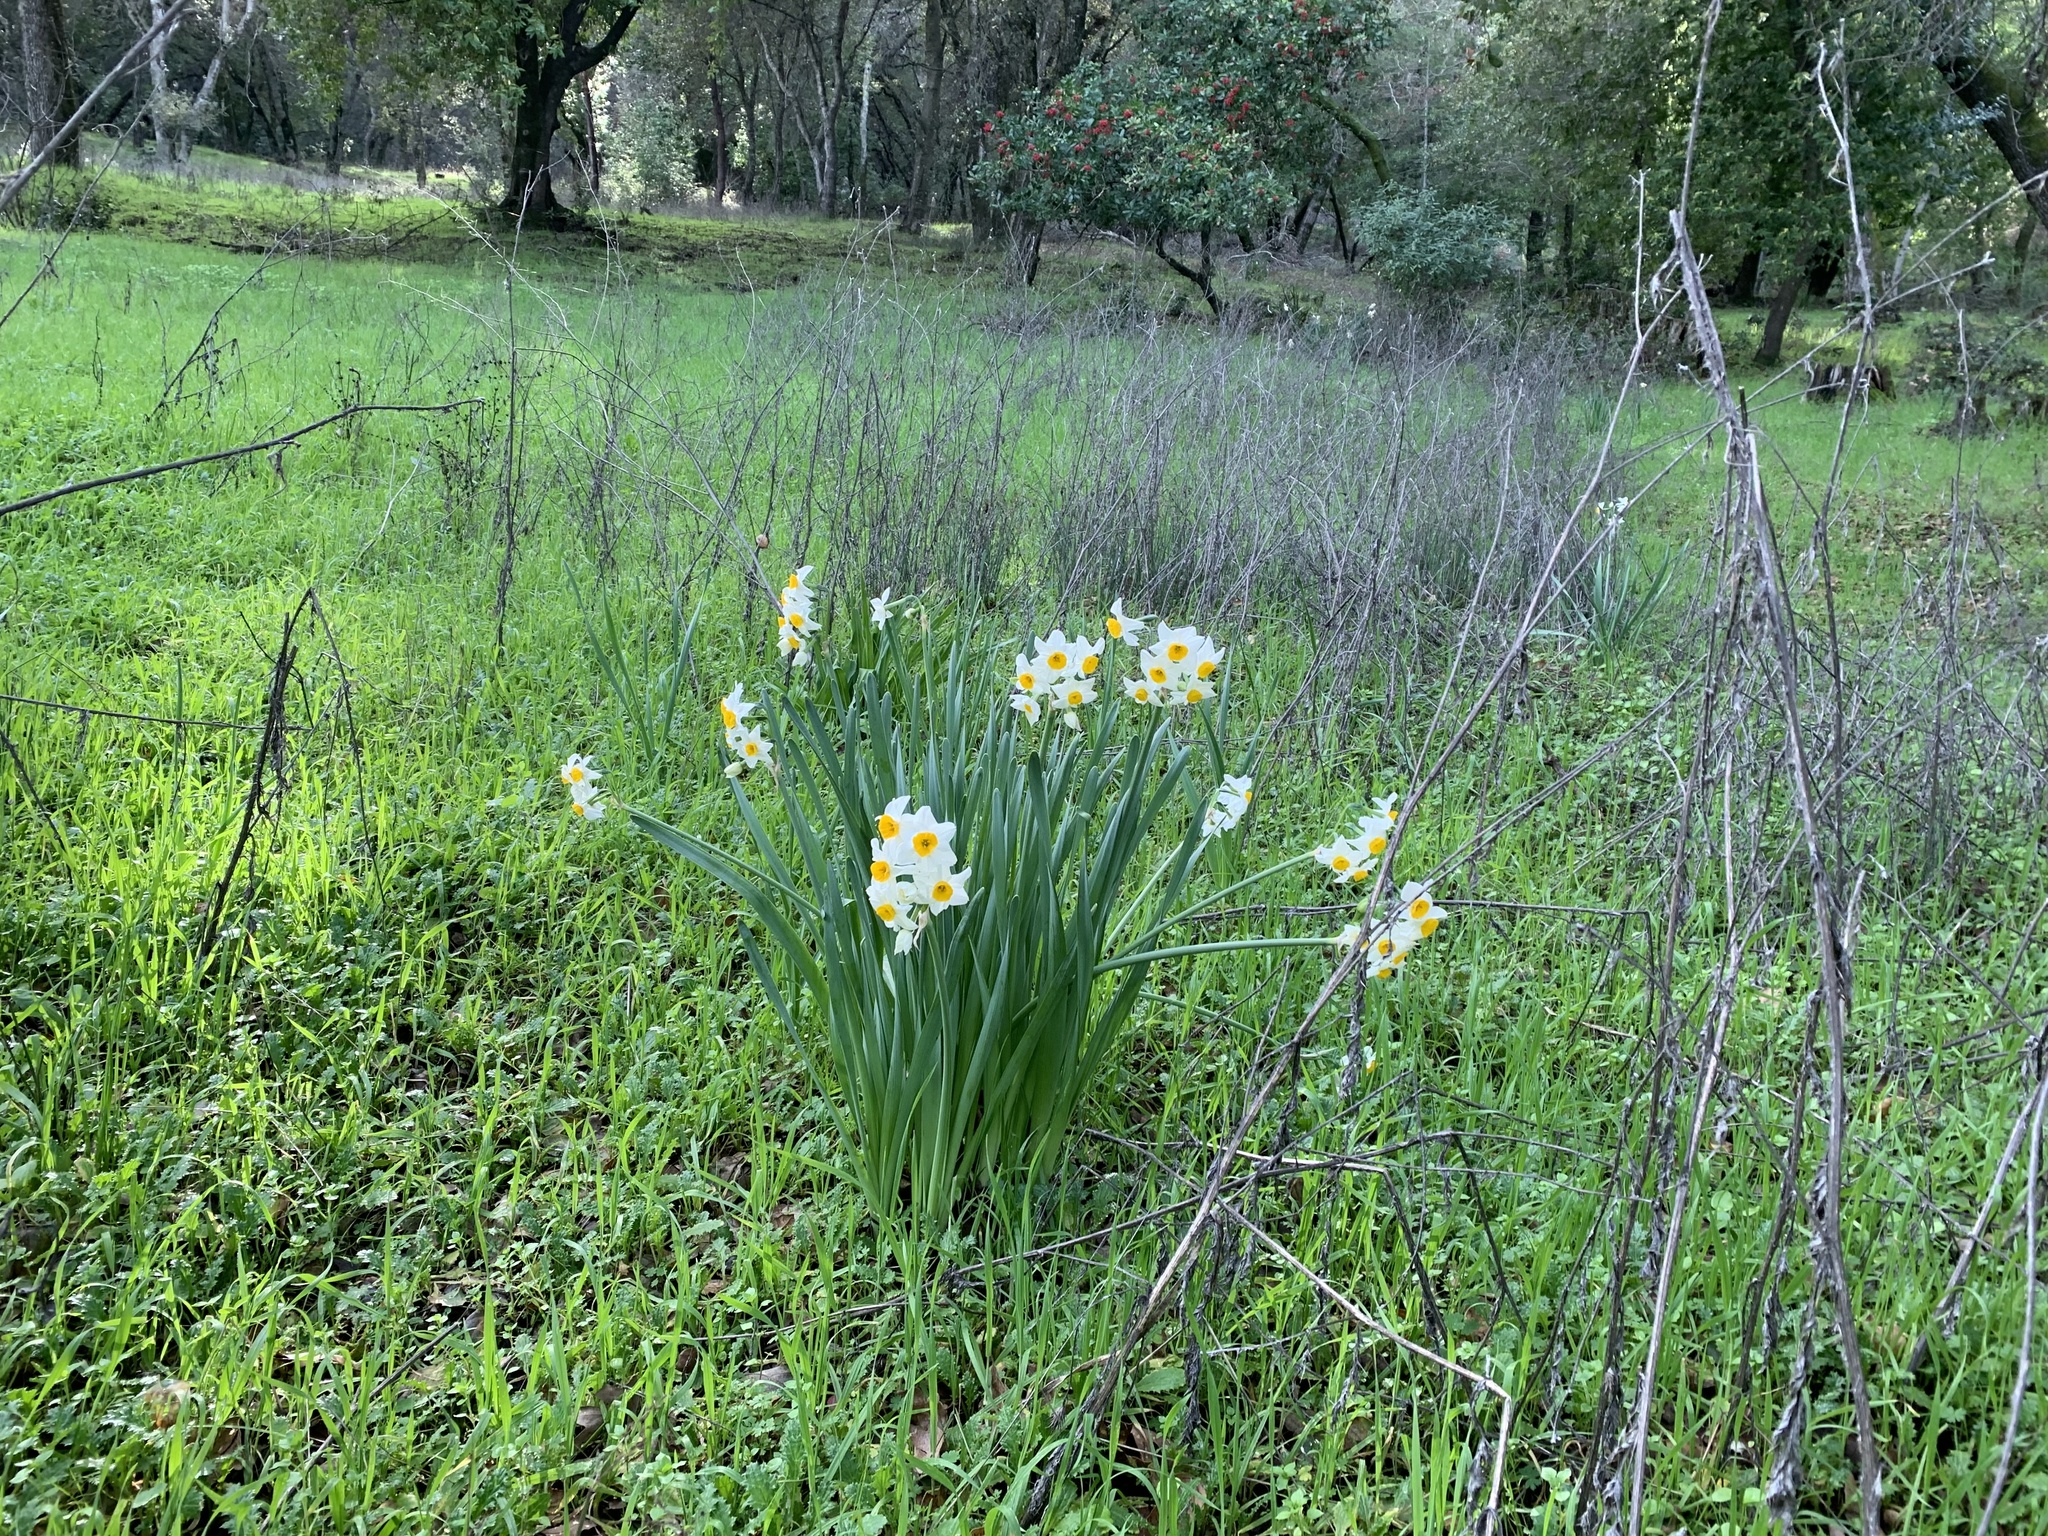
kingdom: Plantae
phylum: Tracheophyta
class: Liliopsida
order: Asparagales
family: Amaryllidaceae
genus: Narcissus
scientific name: Narcissus tazetta
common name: Bunch-flowered daffodil
